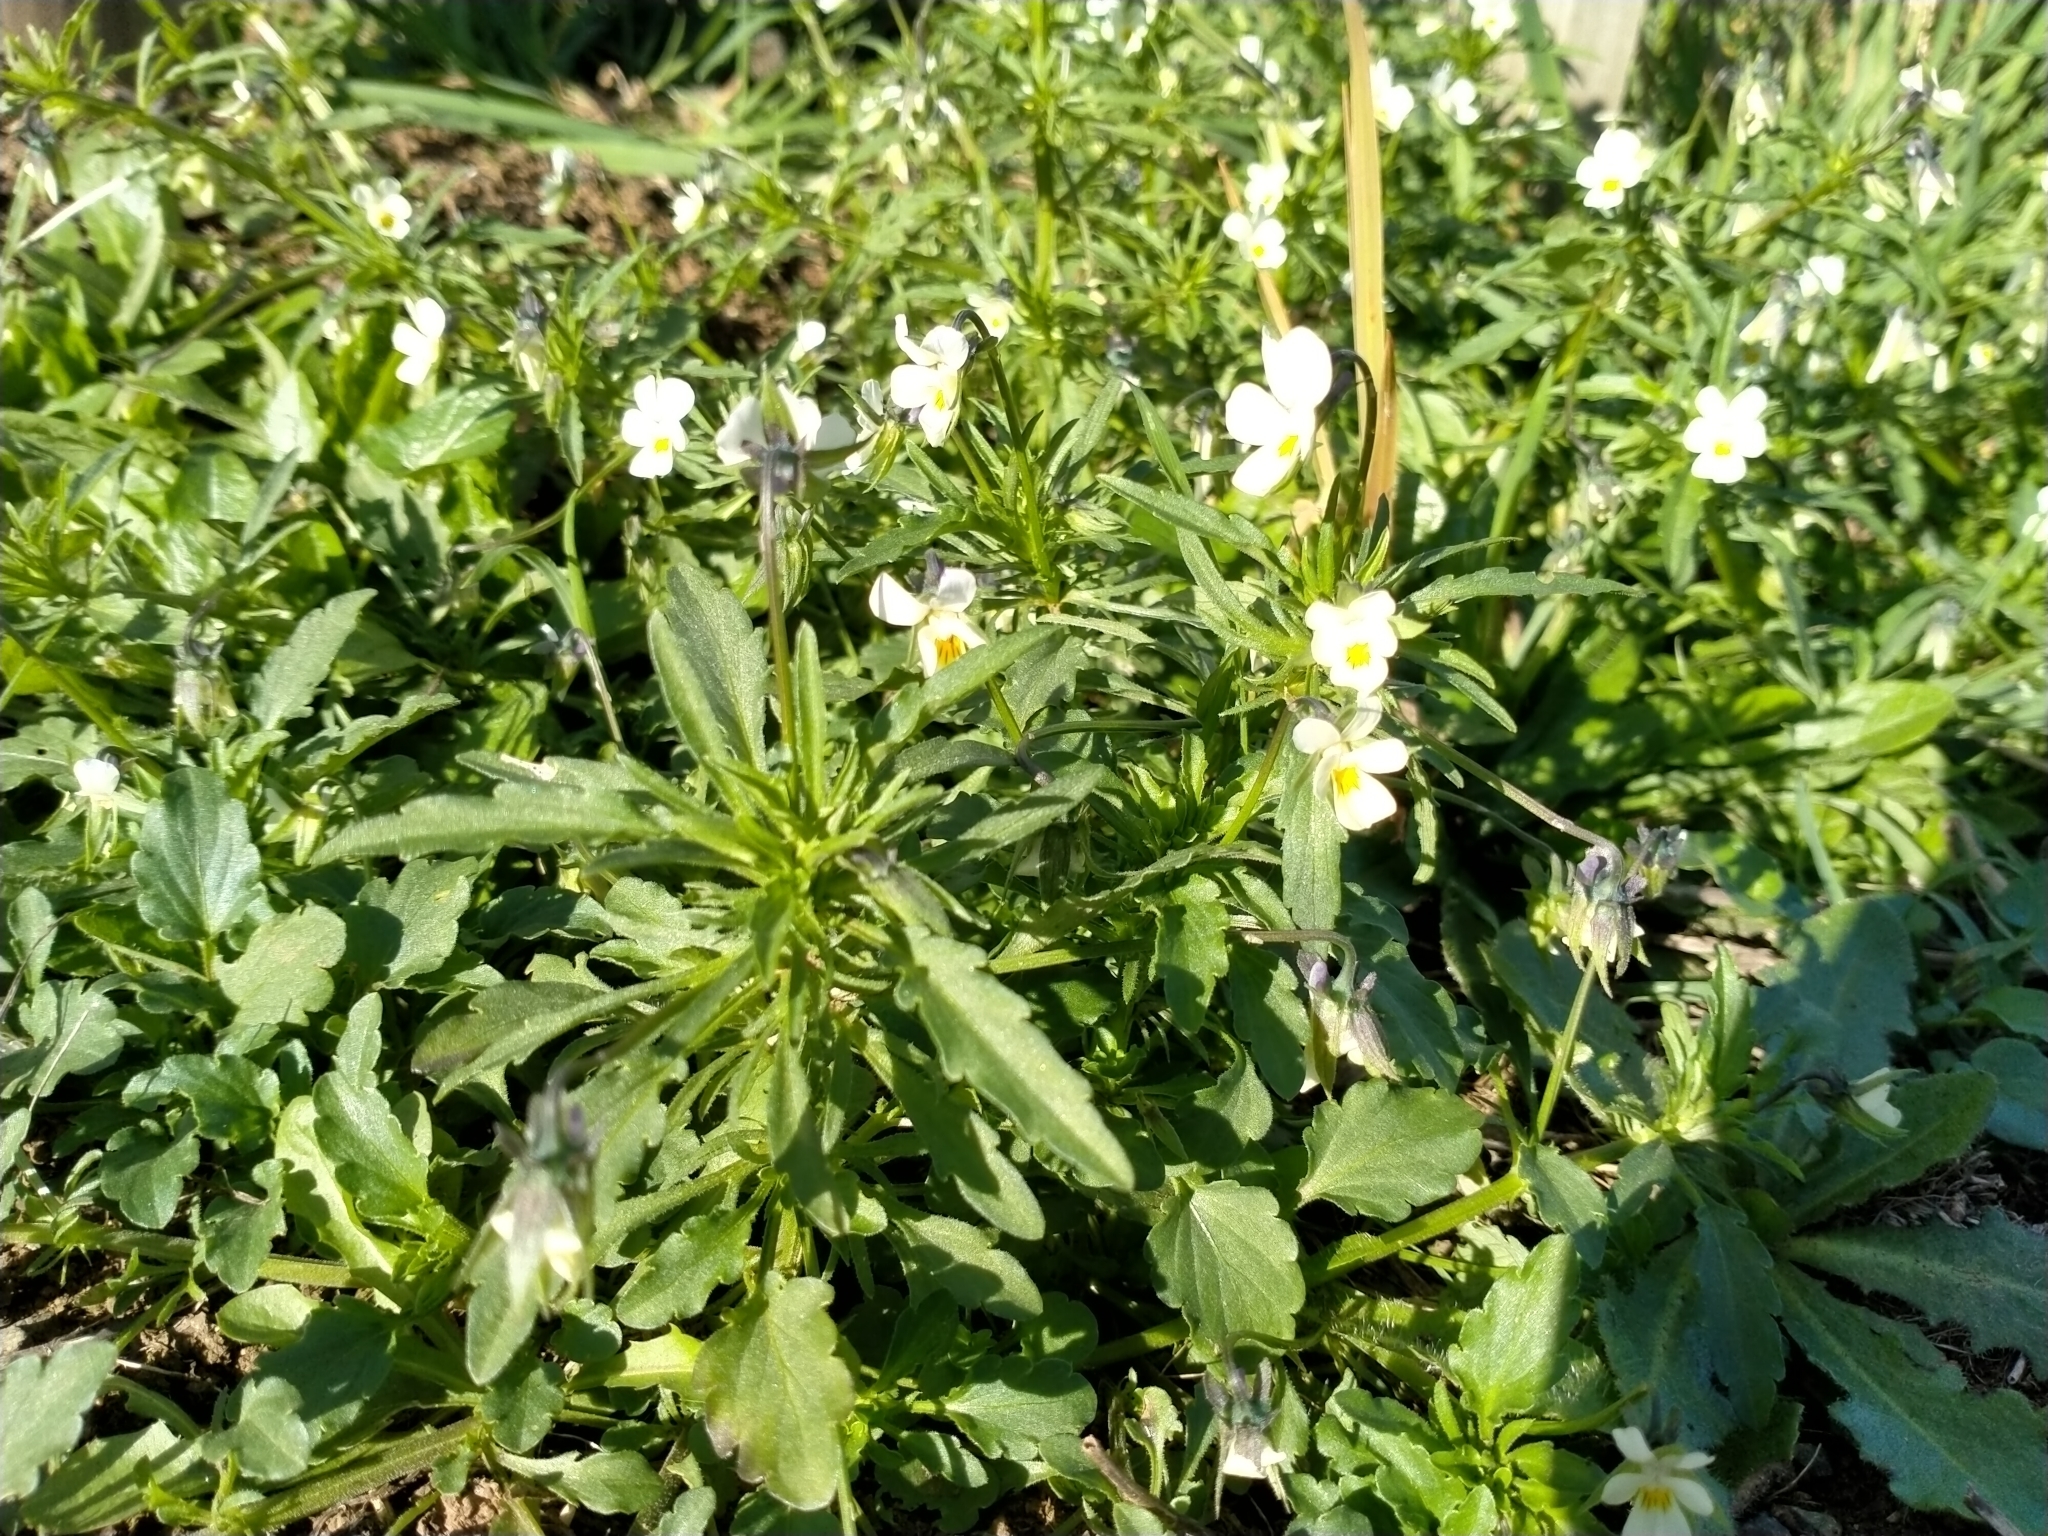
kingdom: Plantae
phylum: Tracheophyta
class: Magnoliopsida
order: Malpighiales
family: Violaceae
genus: Viola
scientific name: Viola arvensis
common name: Field pansy
